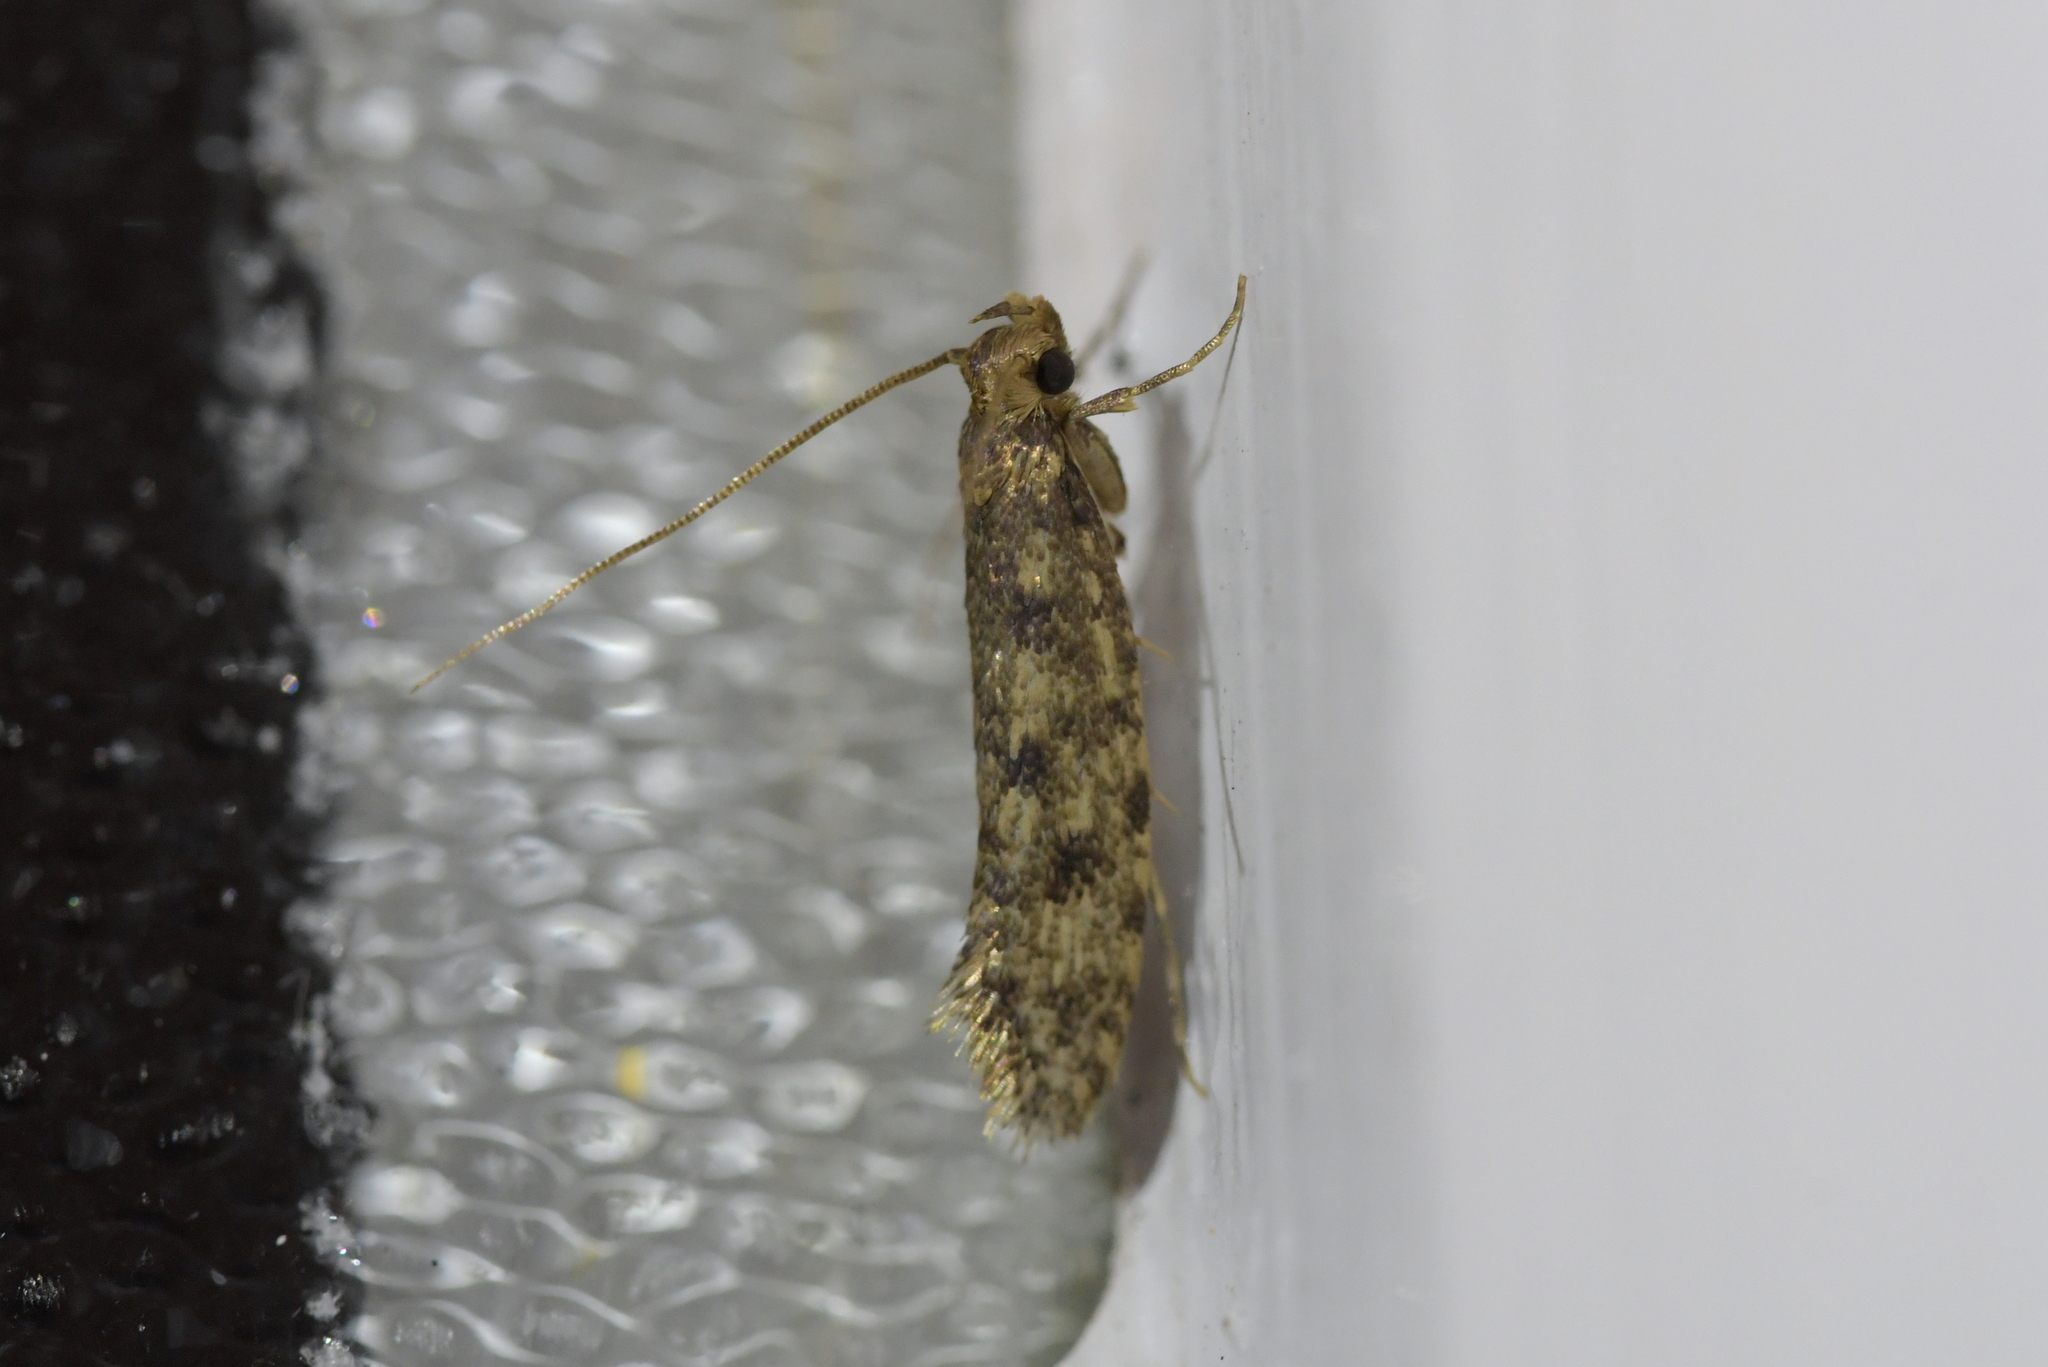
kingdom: Animalia
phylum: Arthropoda
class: Insecta
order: Lepidoptera
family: Tineidae
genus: Lindera
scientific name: Lindera tessellatella
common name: Moth
